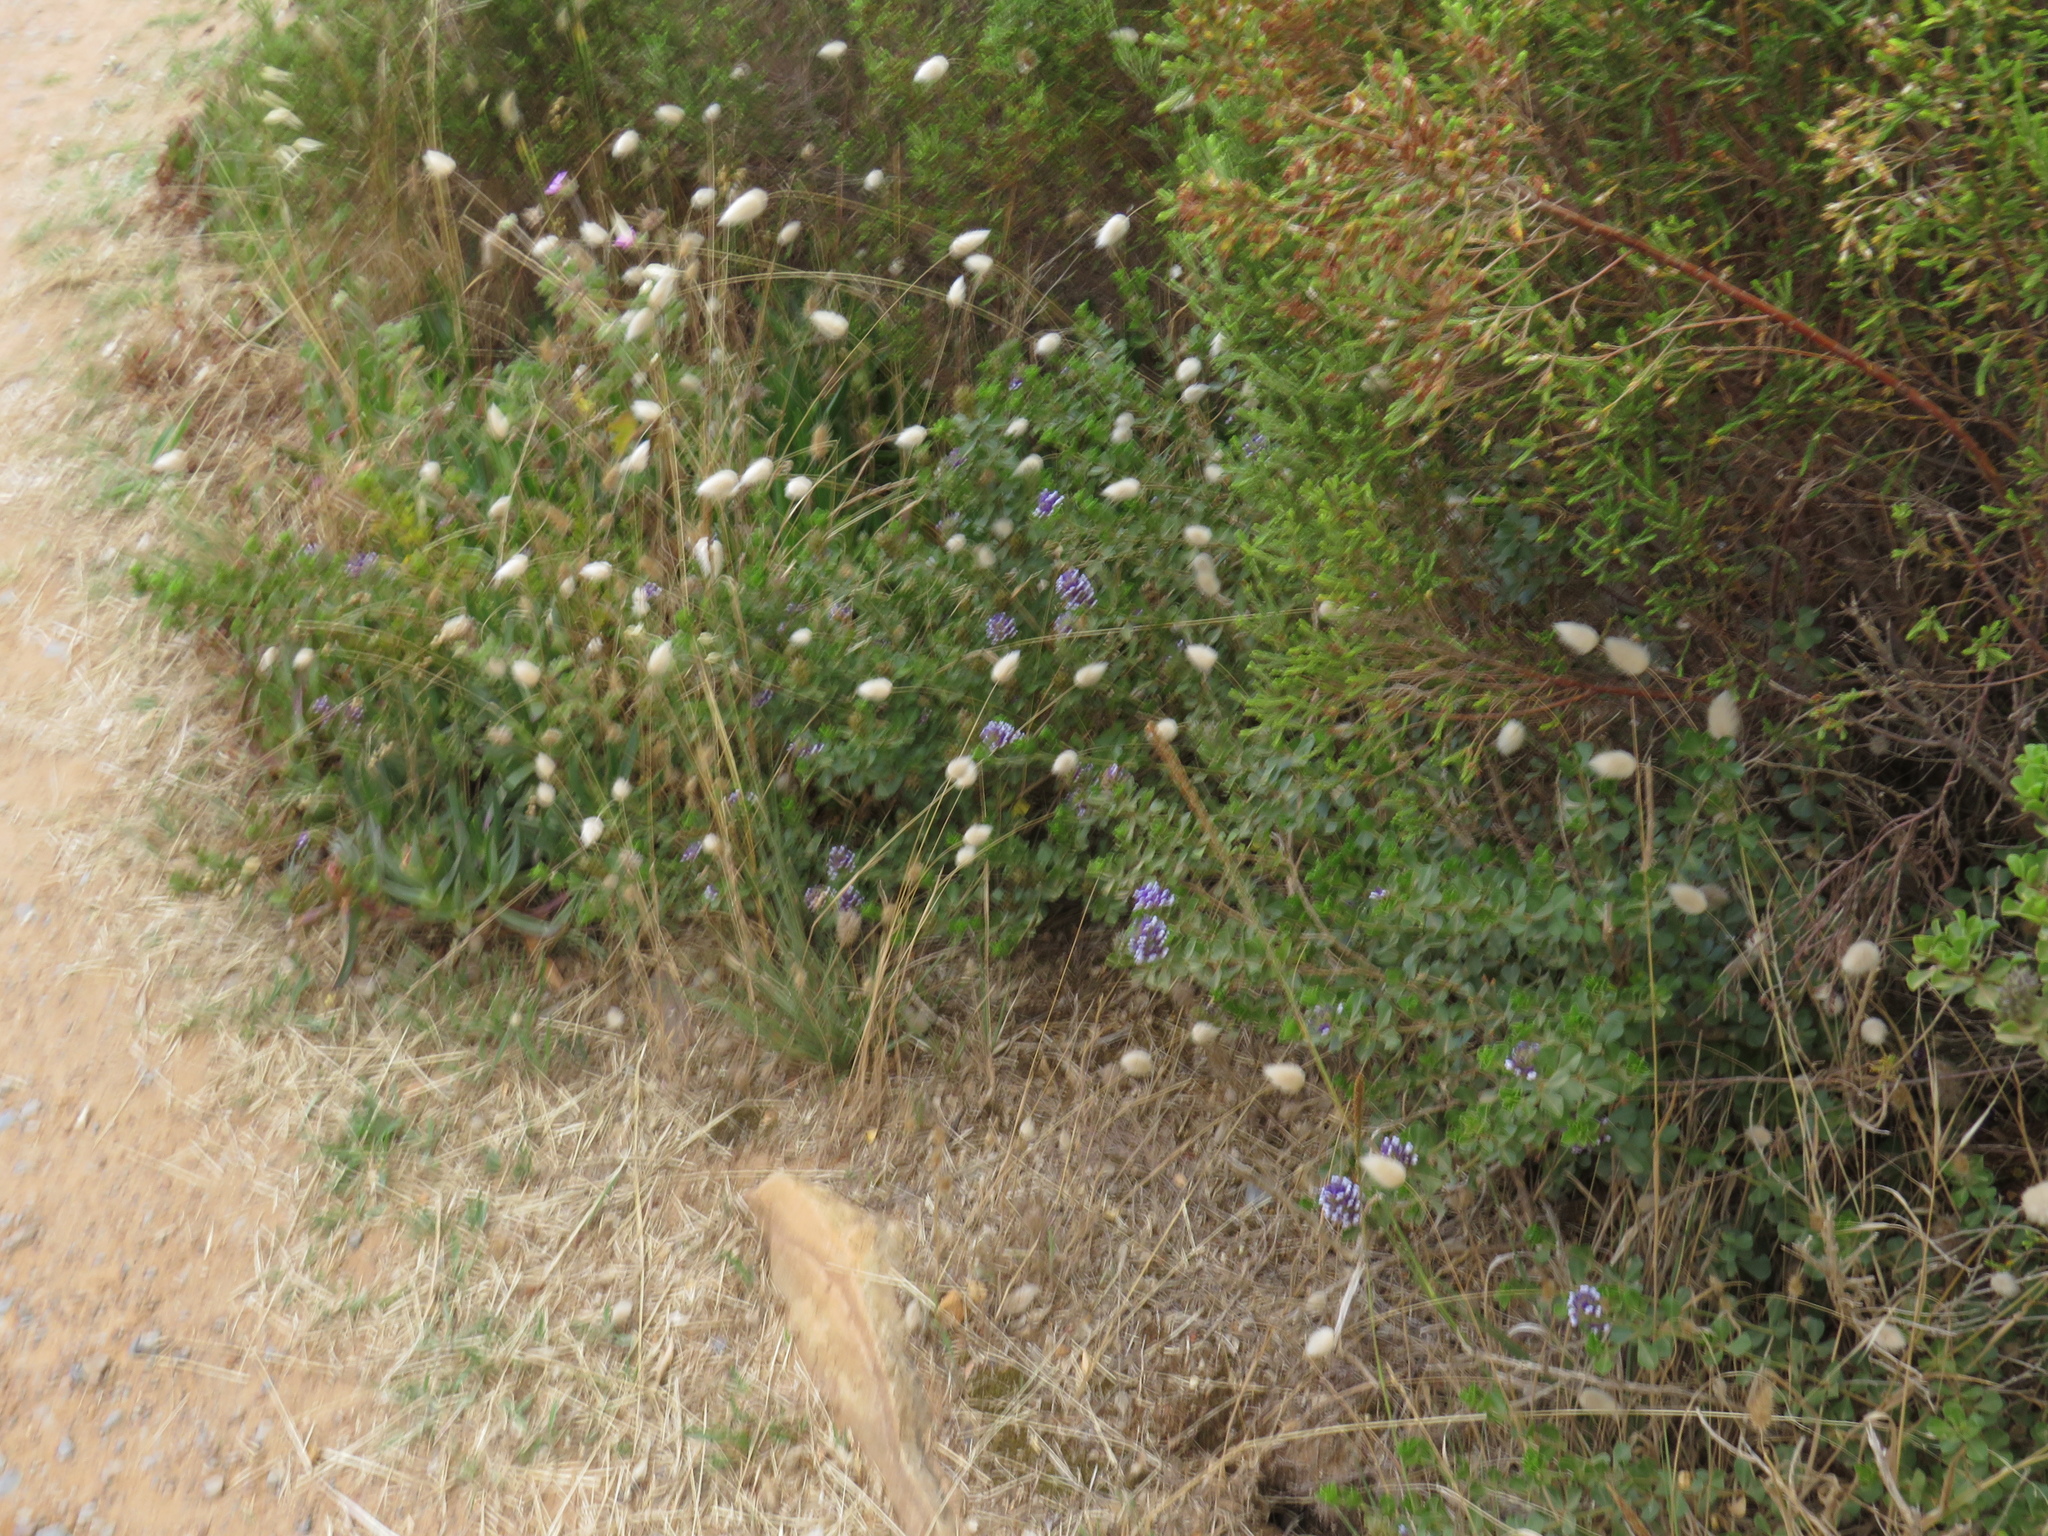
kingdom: Plantae
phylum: Tracheophyta
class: Magnoliopsida
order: Fabales
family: Fabaceae
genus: Psoralea
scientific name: Psoralea fruticans
